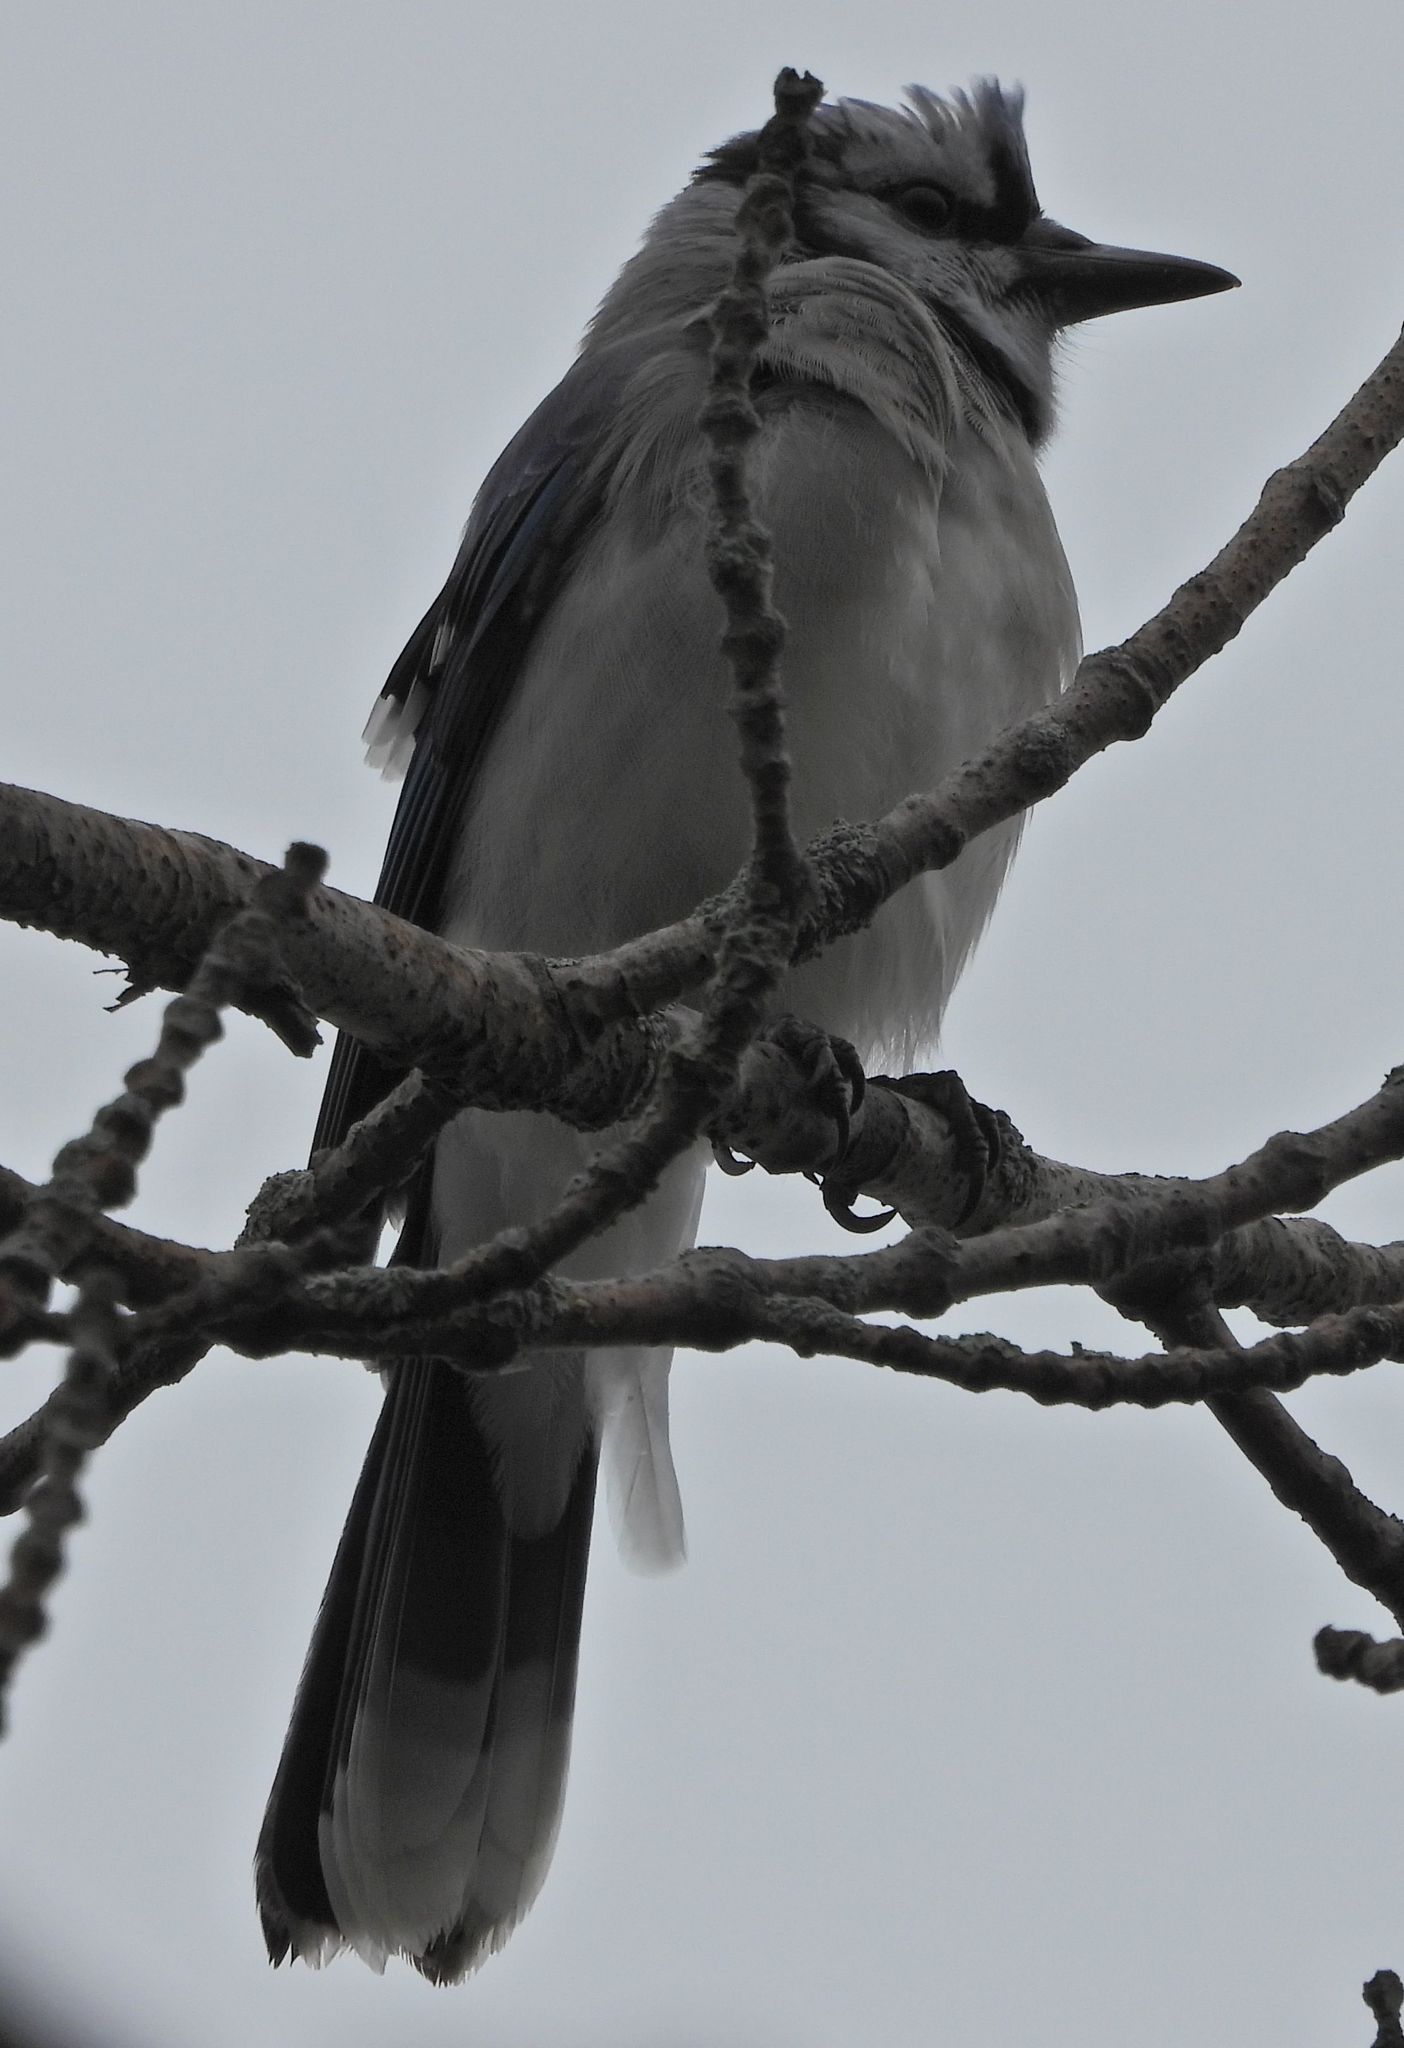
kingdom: Animalia
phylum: Chordata
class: Aves
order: Passeriformes
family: Corvidae
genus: Cyanocitta
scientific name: Cyanocitta cristata
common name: Blue jay
